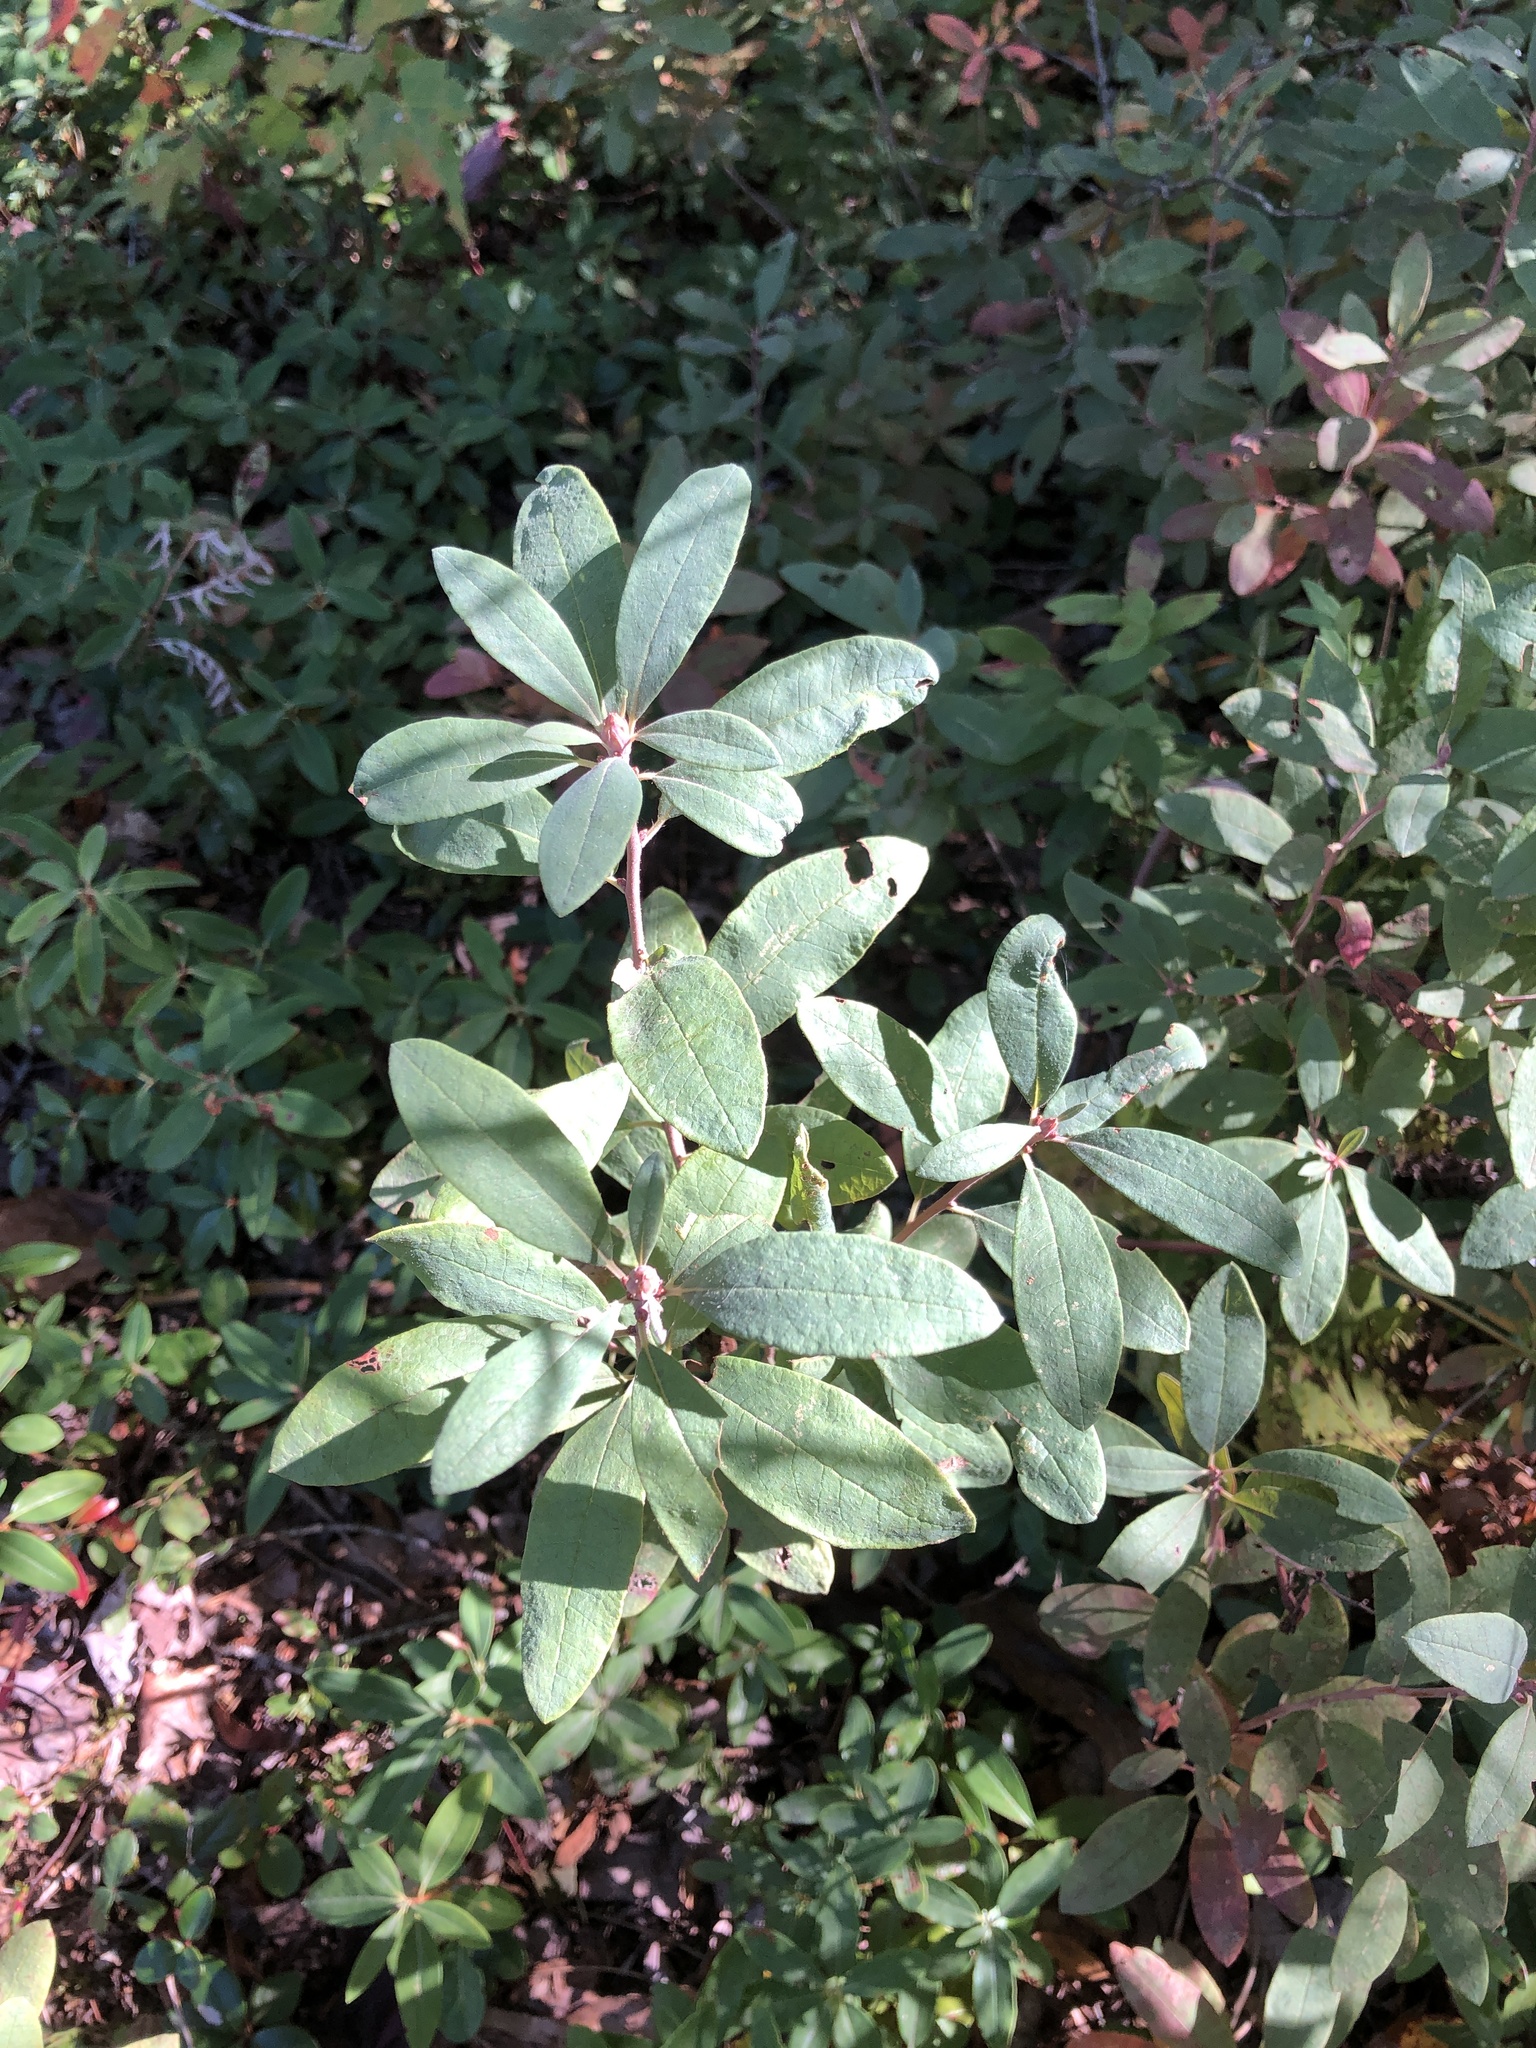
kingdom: Plantae
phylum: Tracheophyta
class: Magnoliopsida
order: Ericales
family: Ericaceae
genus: Rhododendron
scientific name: Rhododendron canadense
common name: Rhodora
